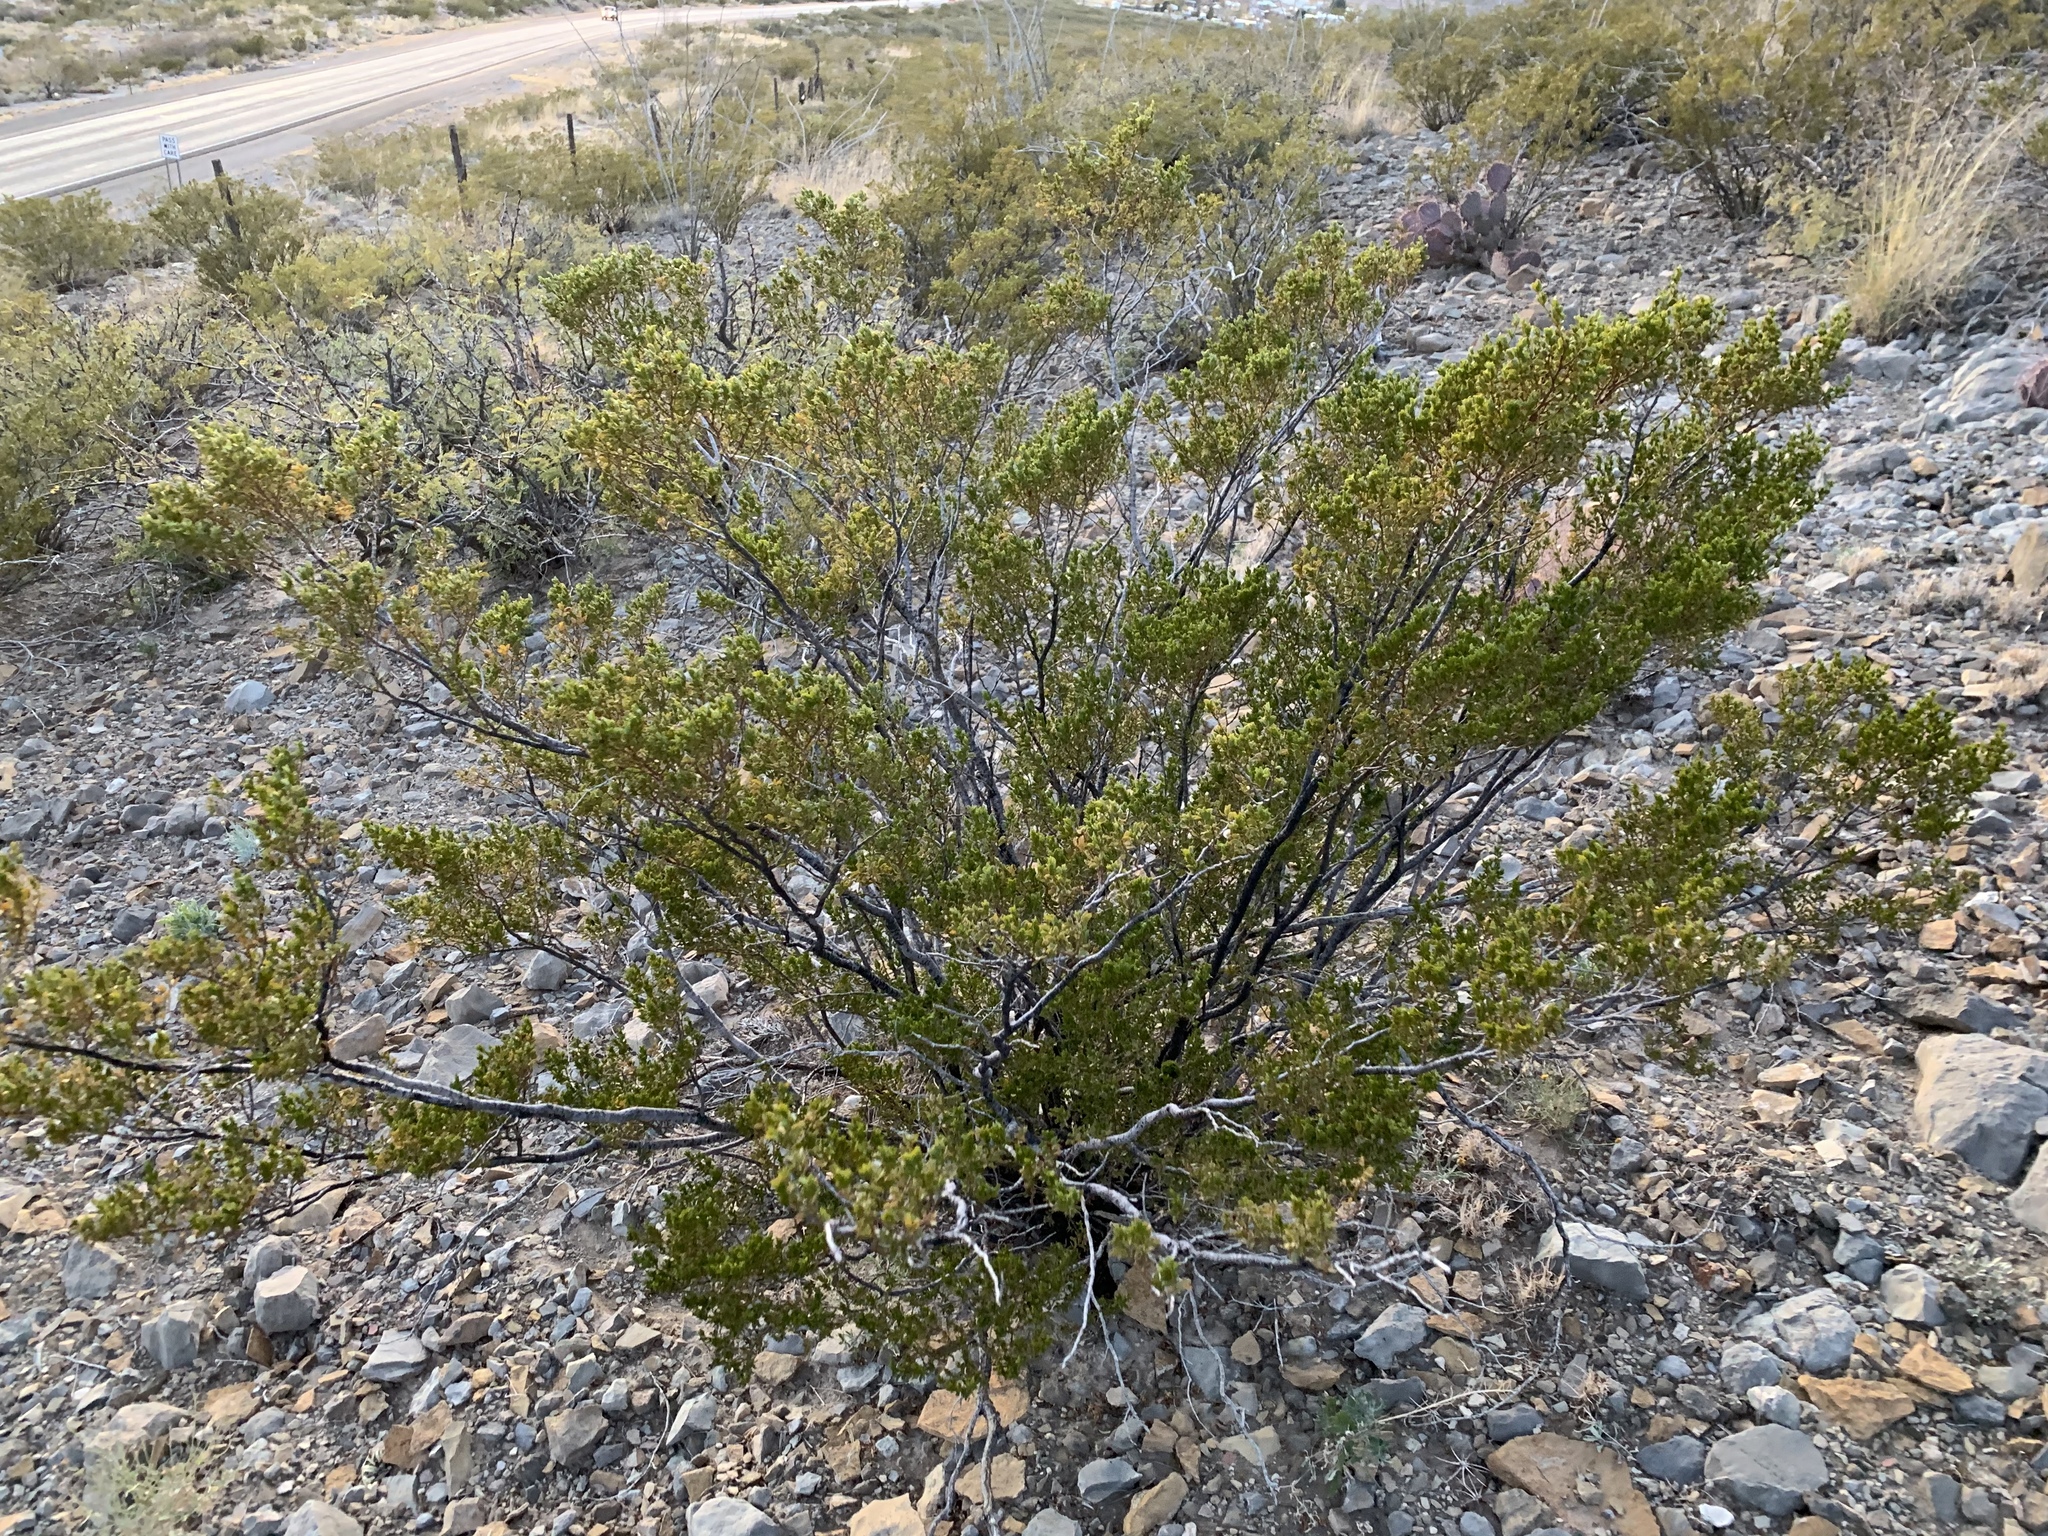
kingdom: Plantae
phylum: Tracheophyta
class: Magnoliopsida
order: Zygophyllales
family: Zygophyllaceae
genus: Larrea
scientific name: Larrea tridentata
